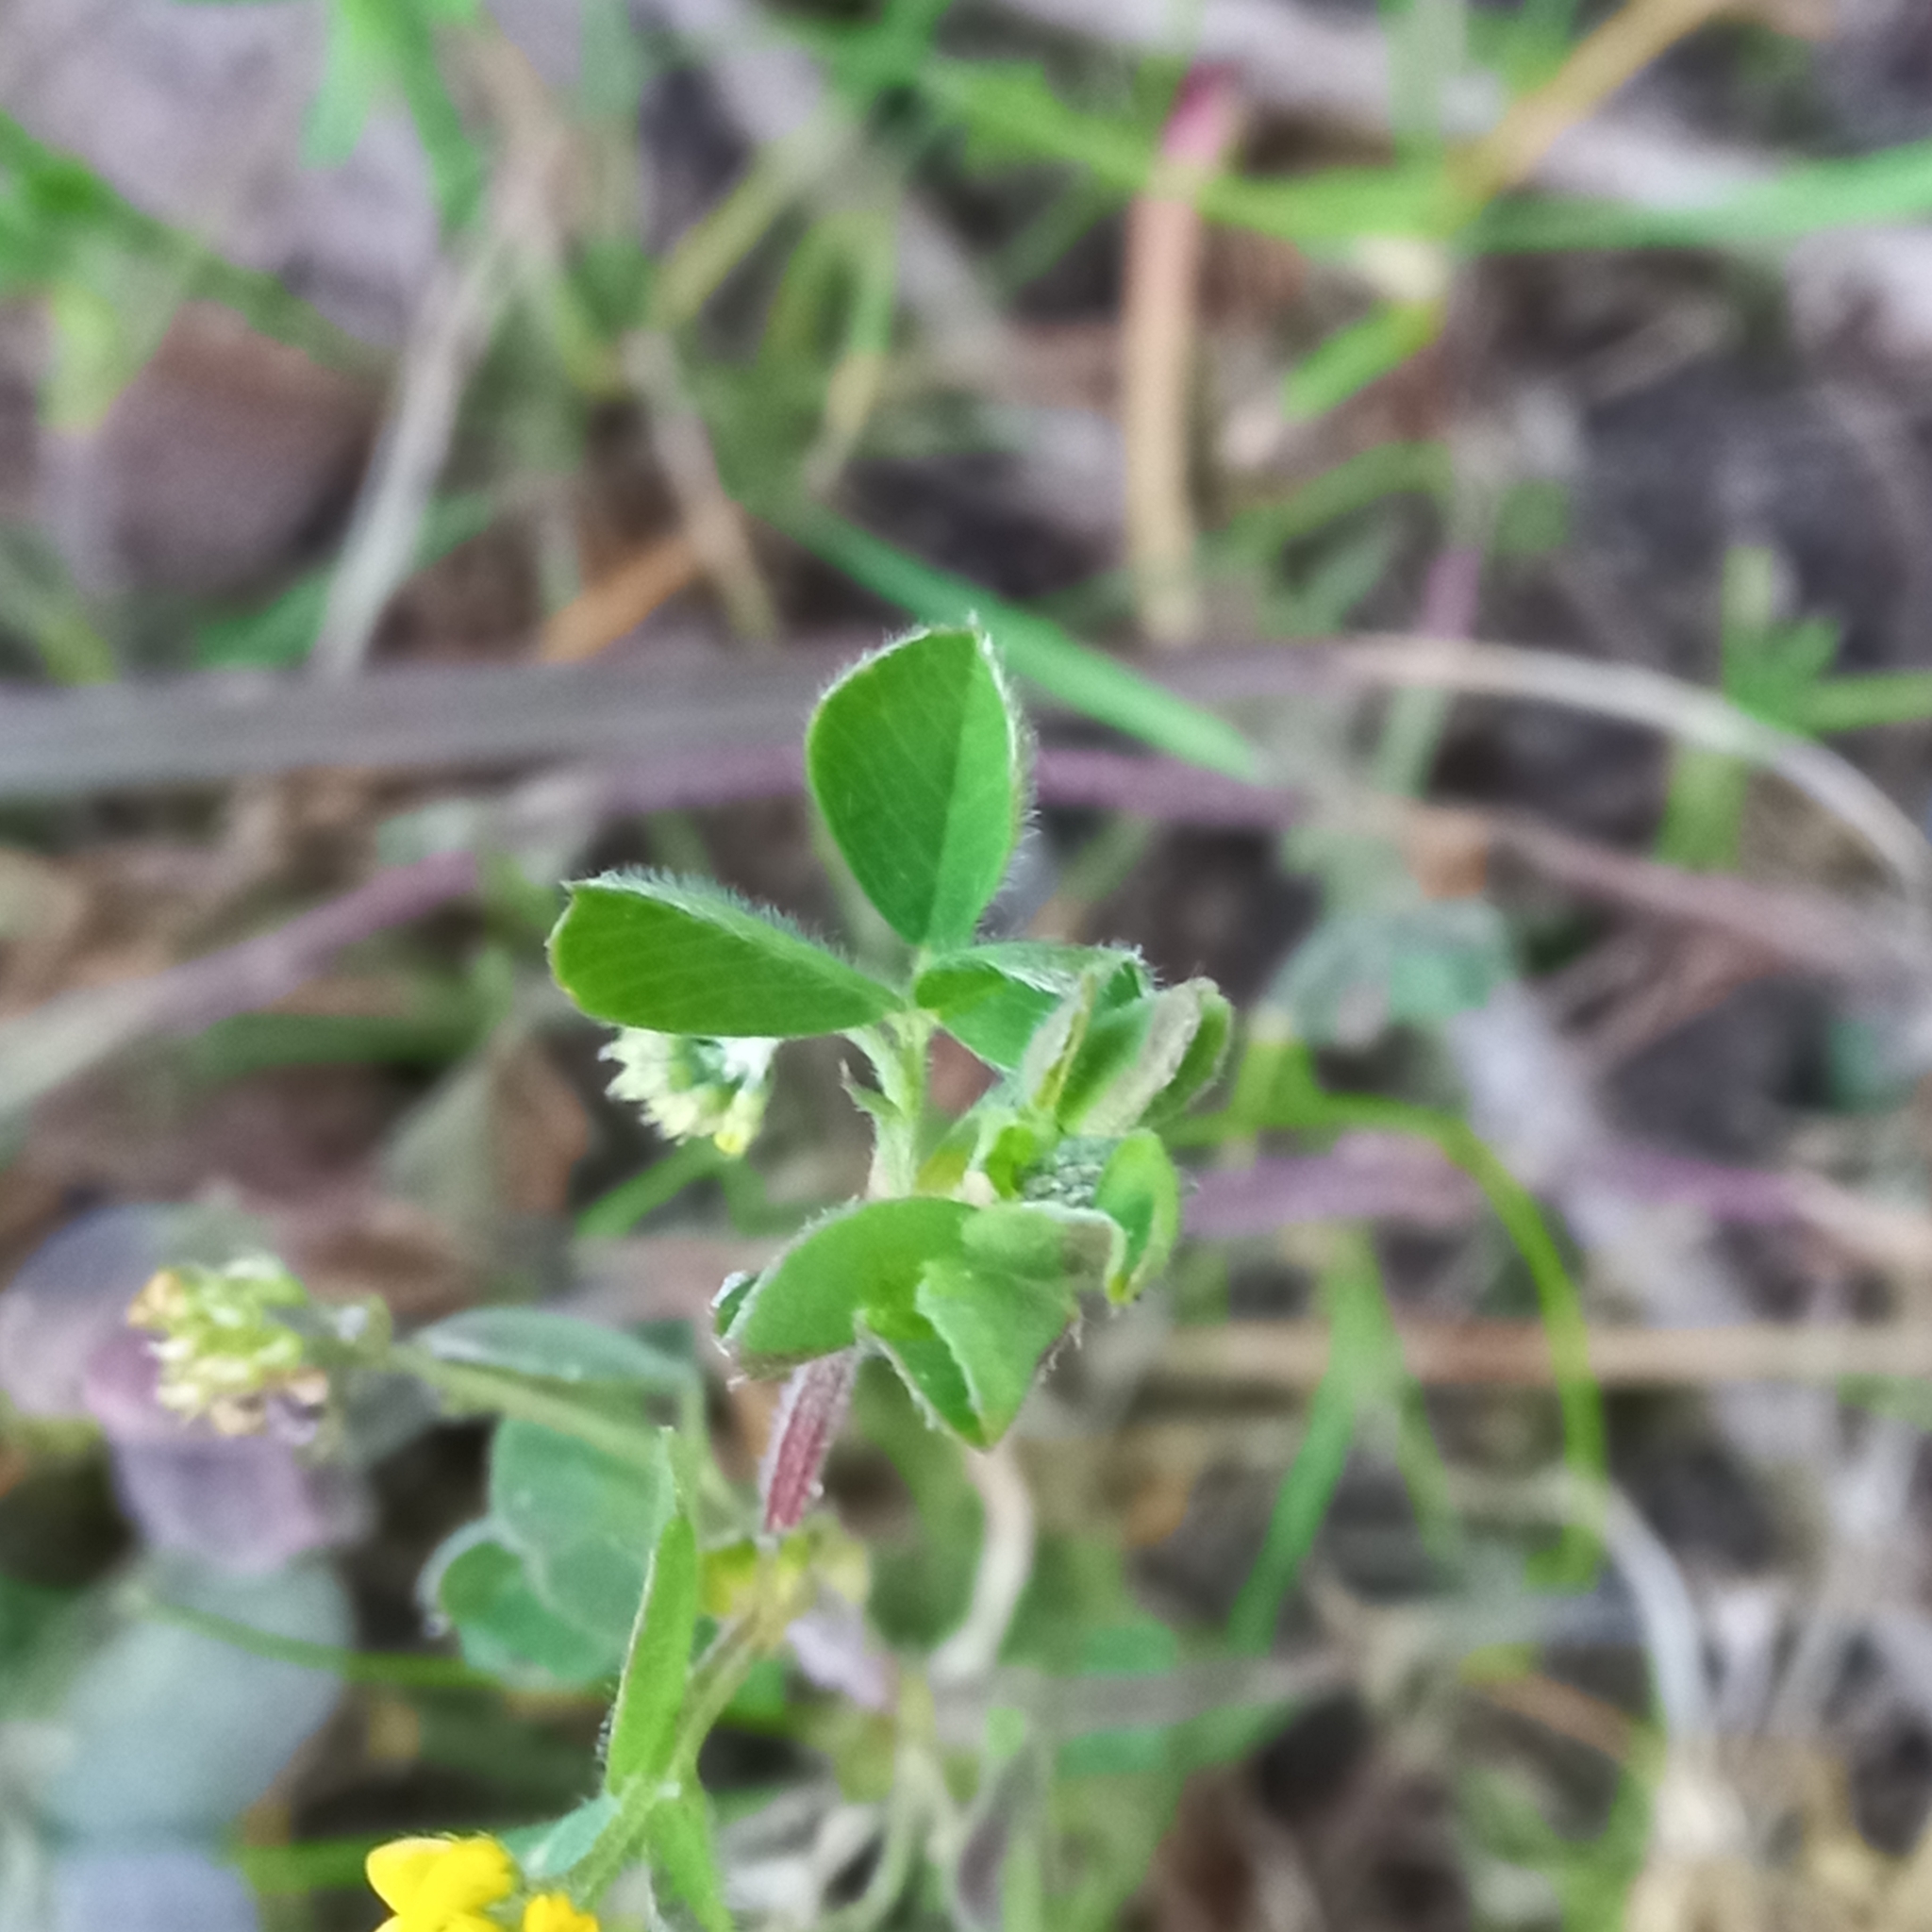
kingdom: Plantae
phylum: Tracheophyta
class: Magnoliopsida
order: Fabales
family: Fabaceae
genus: Medicago
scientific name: Medicago lupulina
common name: Black medick
